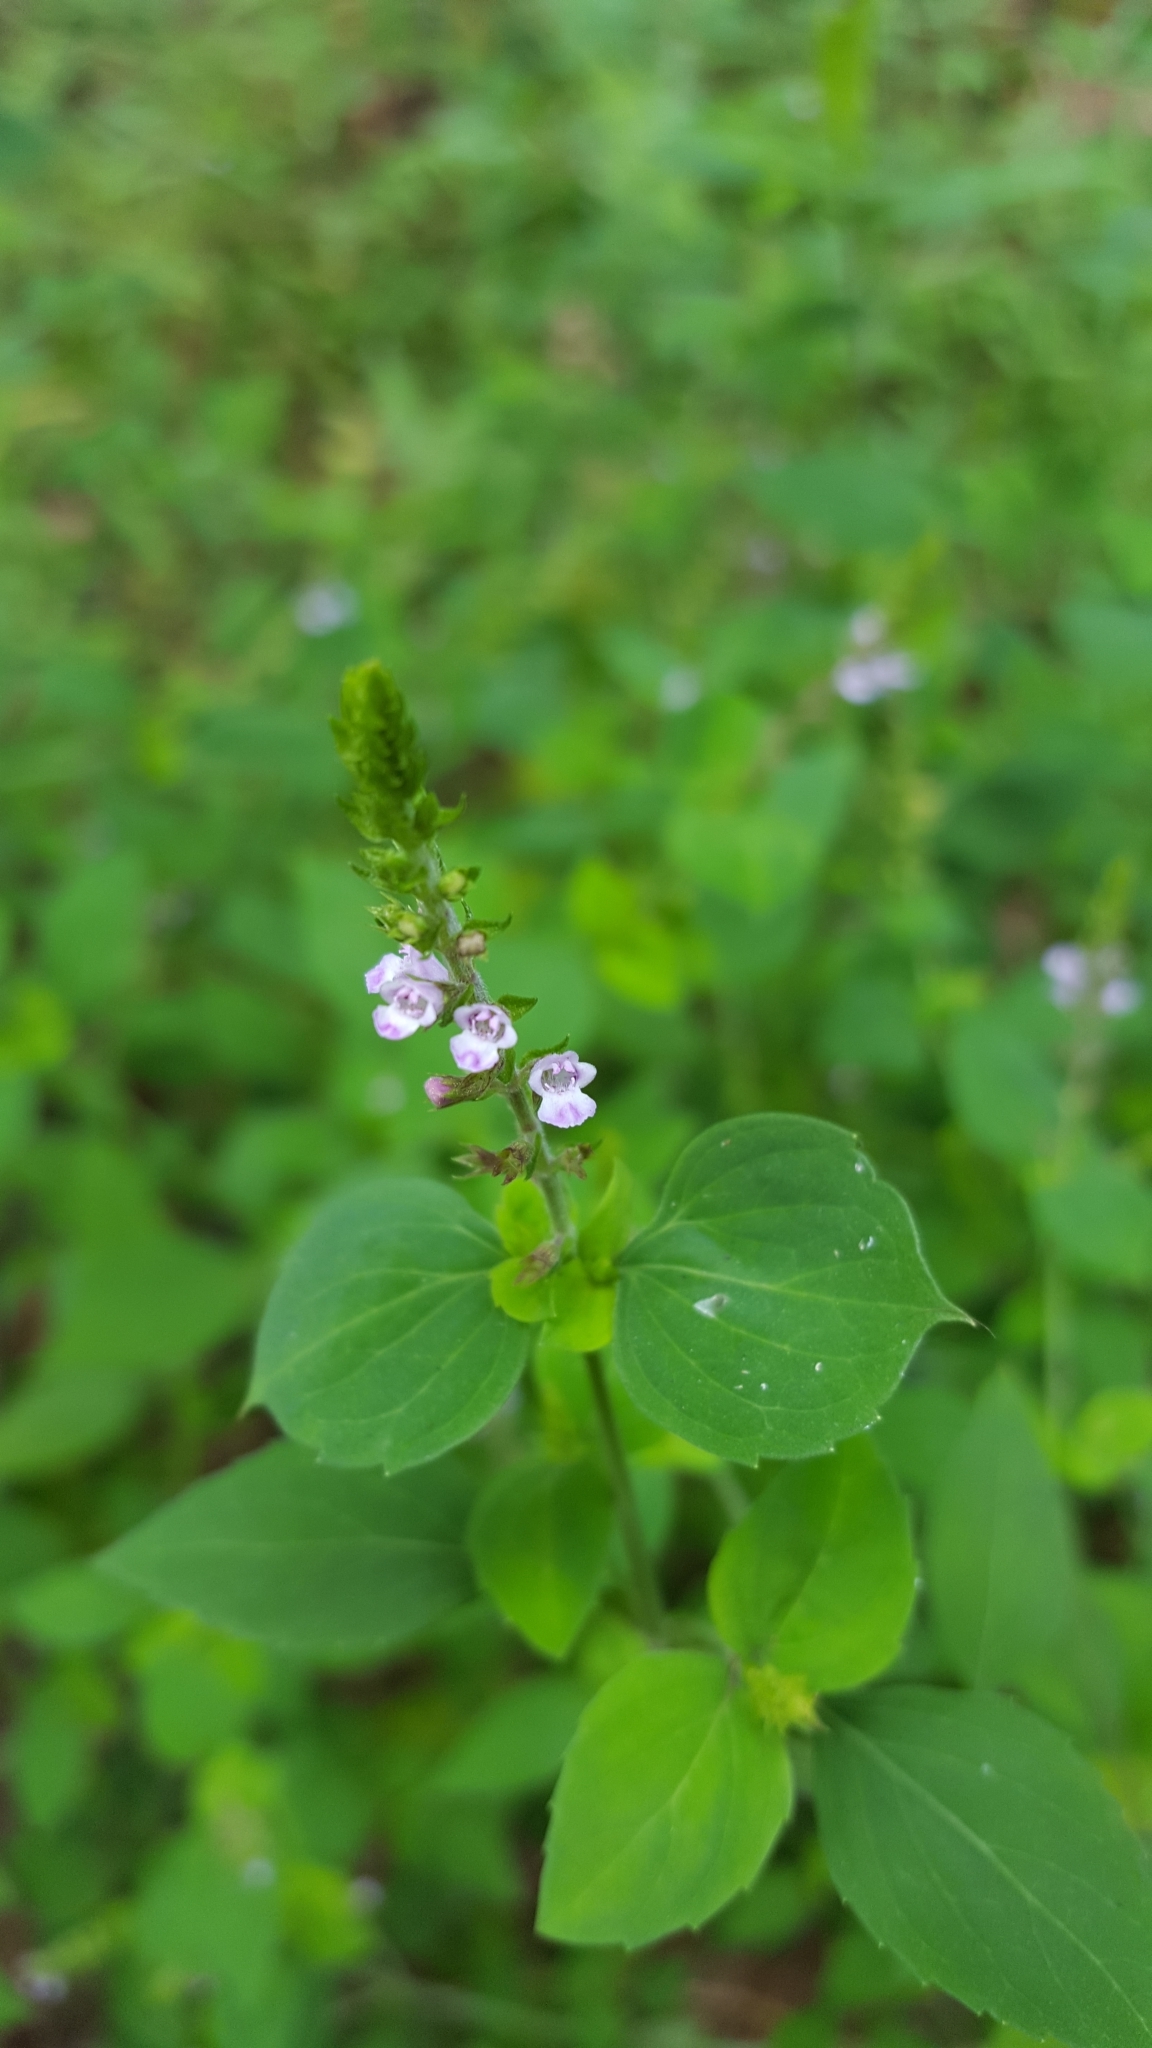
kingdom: Plantae
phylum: Tracheophyta
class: Magnoliopsida
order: Lamiales
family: Lamiaceae
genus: Mosla
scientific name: Mosla dianthera
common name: Miniature beefsteakplant
